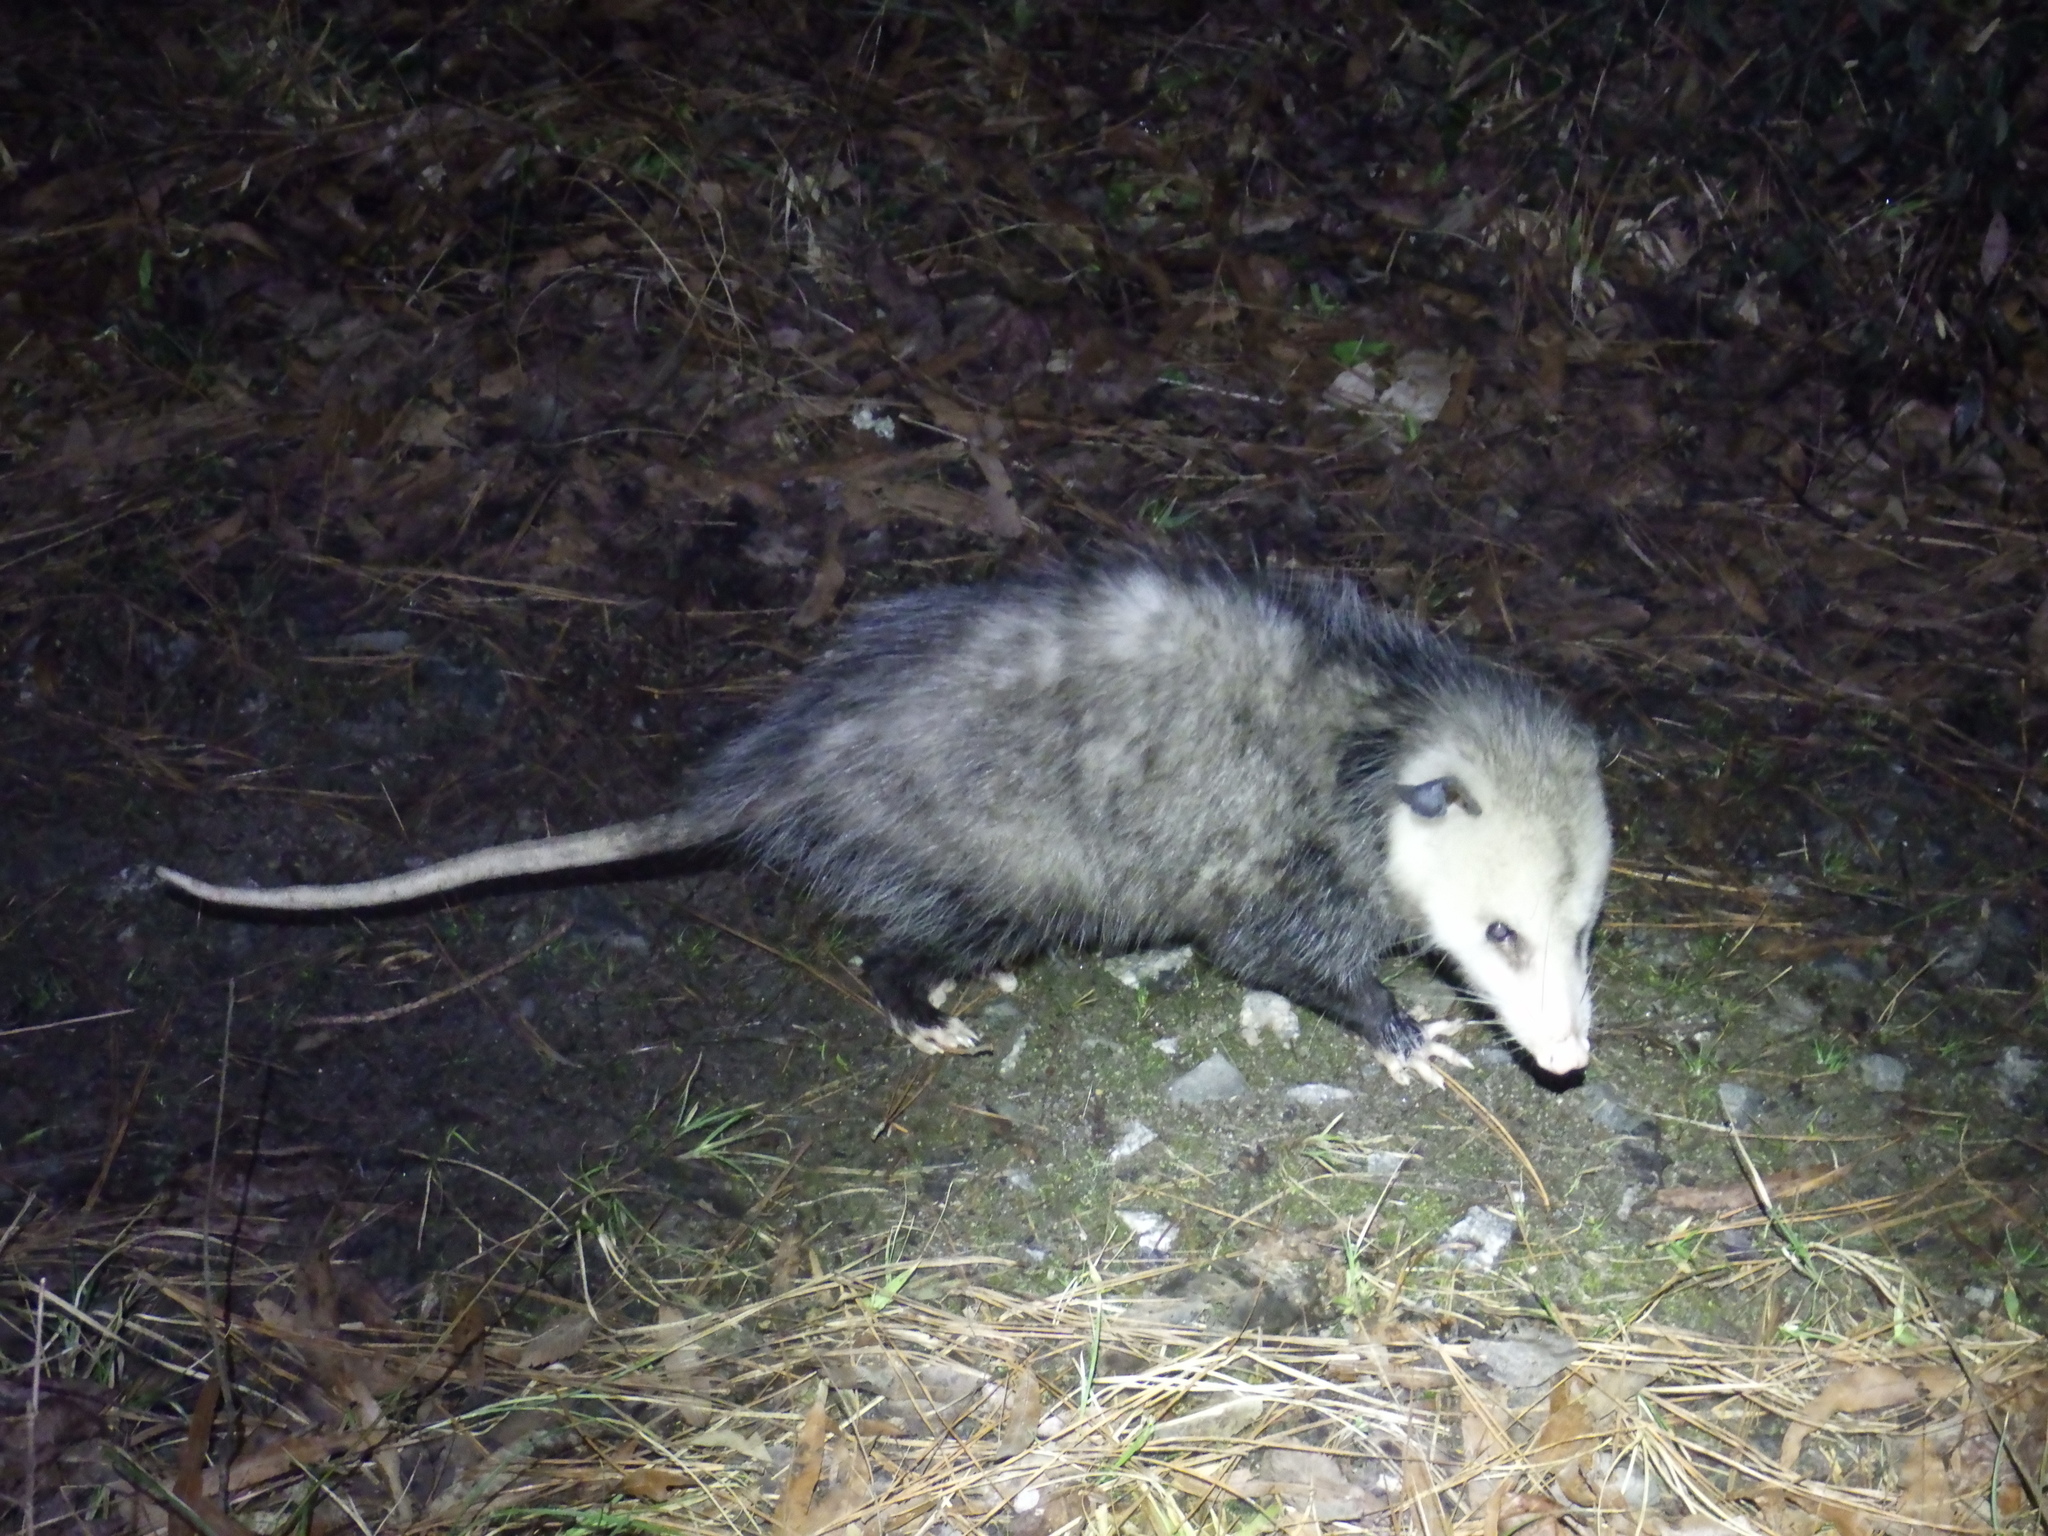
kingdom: Animalia
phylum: Chordata
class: Mammalia
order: Didelphimorphia
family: Didelphidae
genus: Didelphis
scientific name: Didelphis virginiana
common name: Virginia opossum
